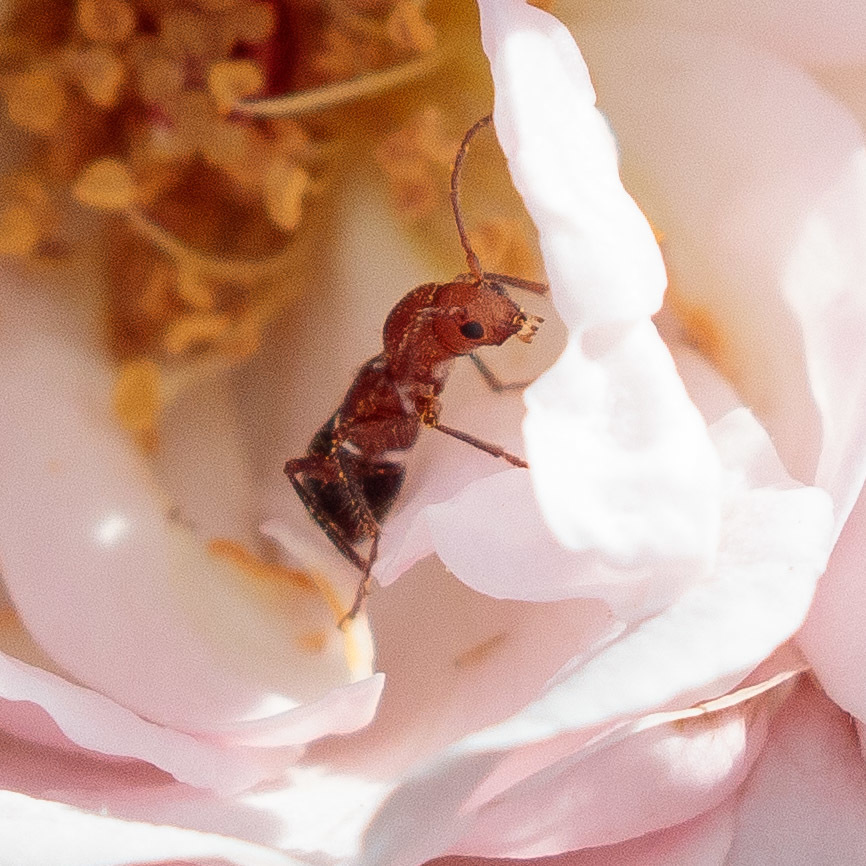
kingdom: Animalia
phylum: Arthropoda
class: Insecta
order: Coleoptera
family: Cerambycidae
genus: Euderces
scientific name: Euderces reichei
